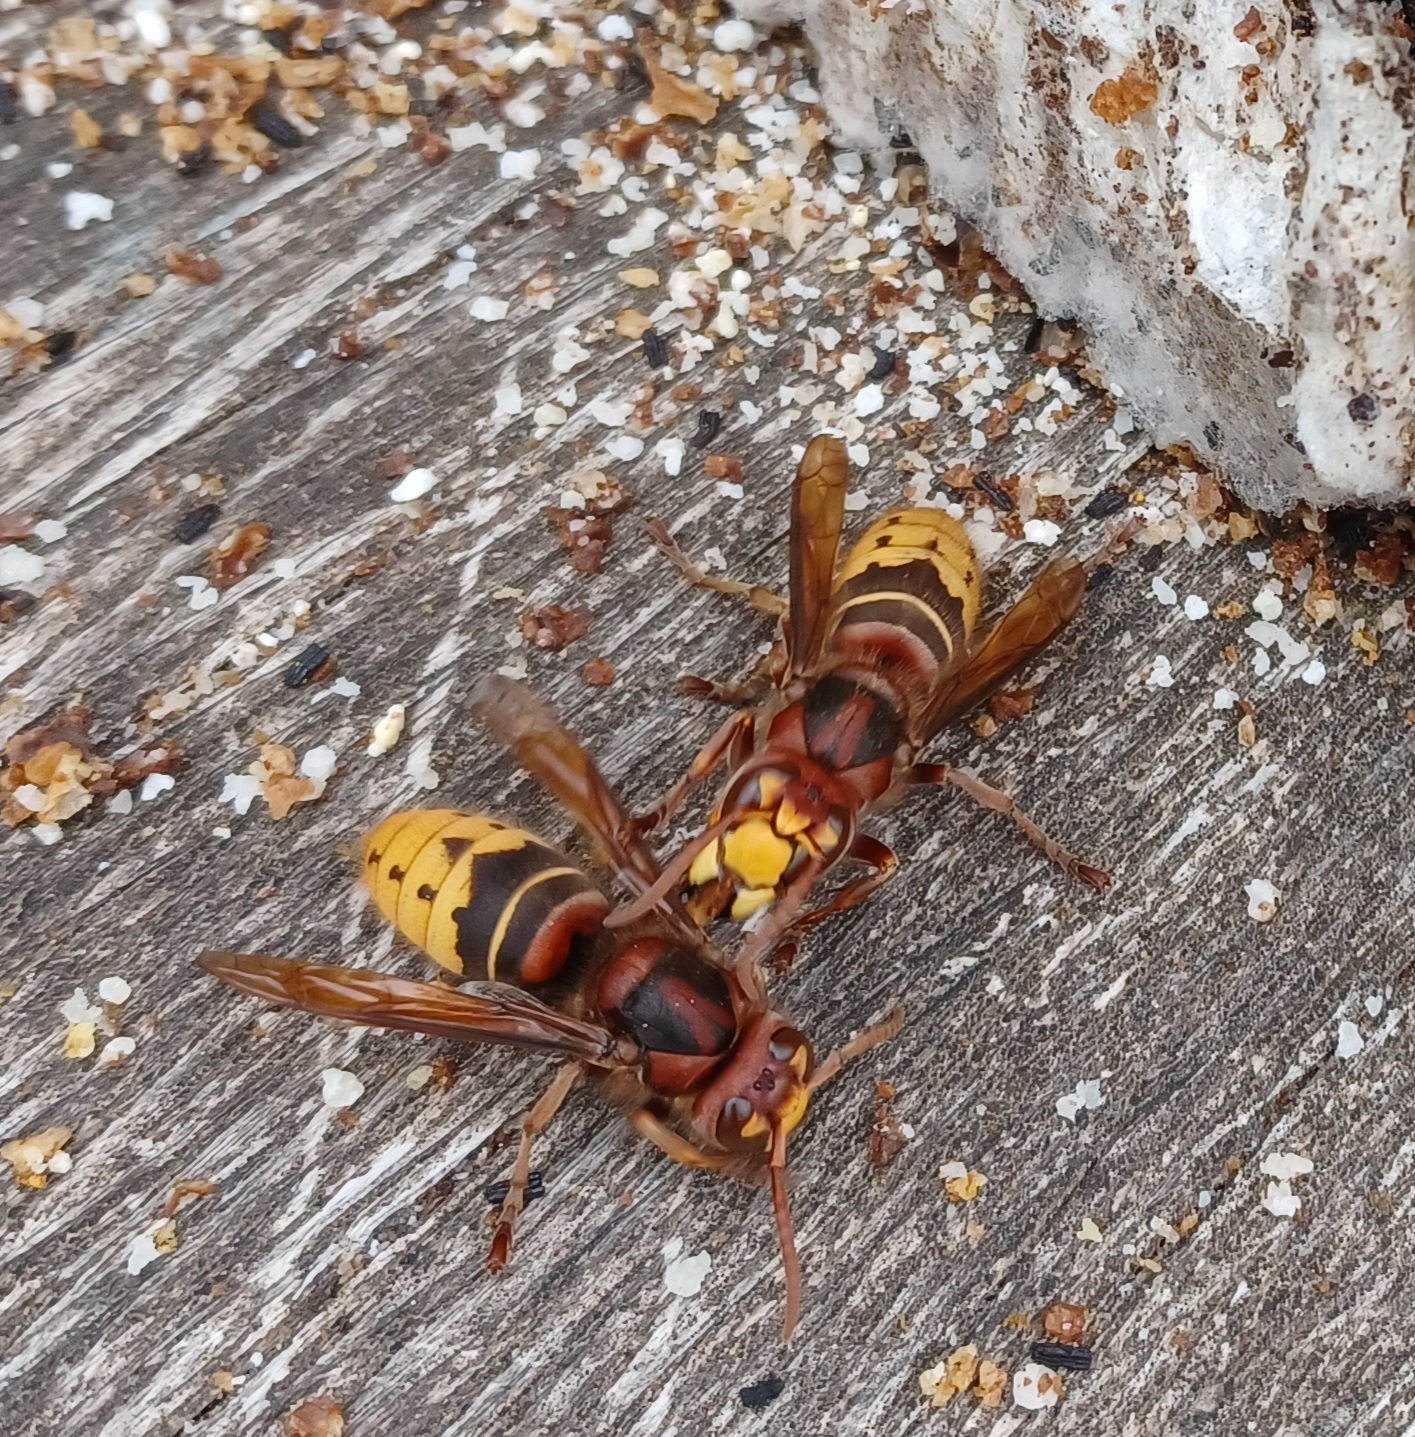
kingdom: Animalia
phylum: Arthropoda
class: Insecta
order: Hymenoptera
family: Vespidae
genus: Vespa
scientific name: Vespa crabro
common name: Hornet
